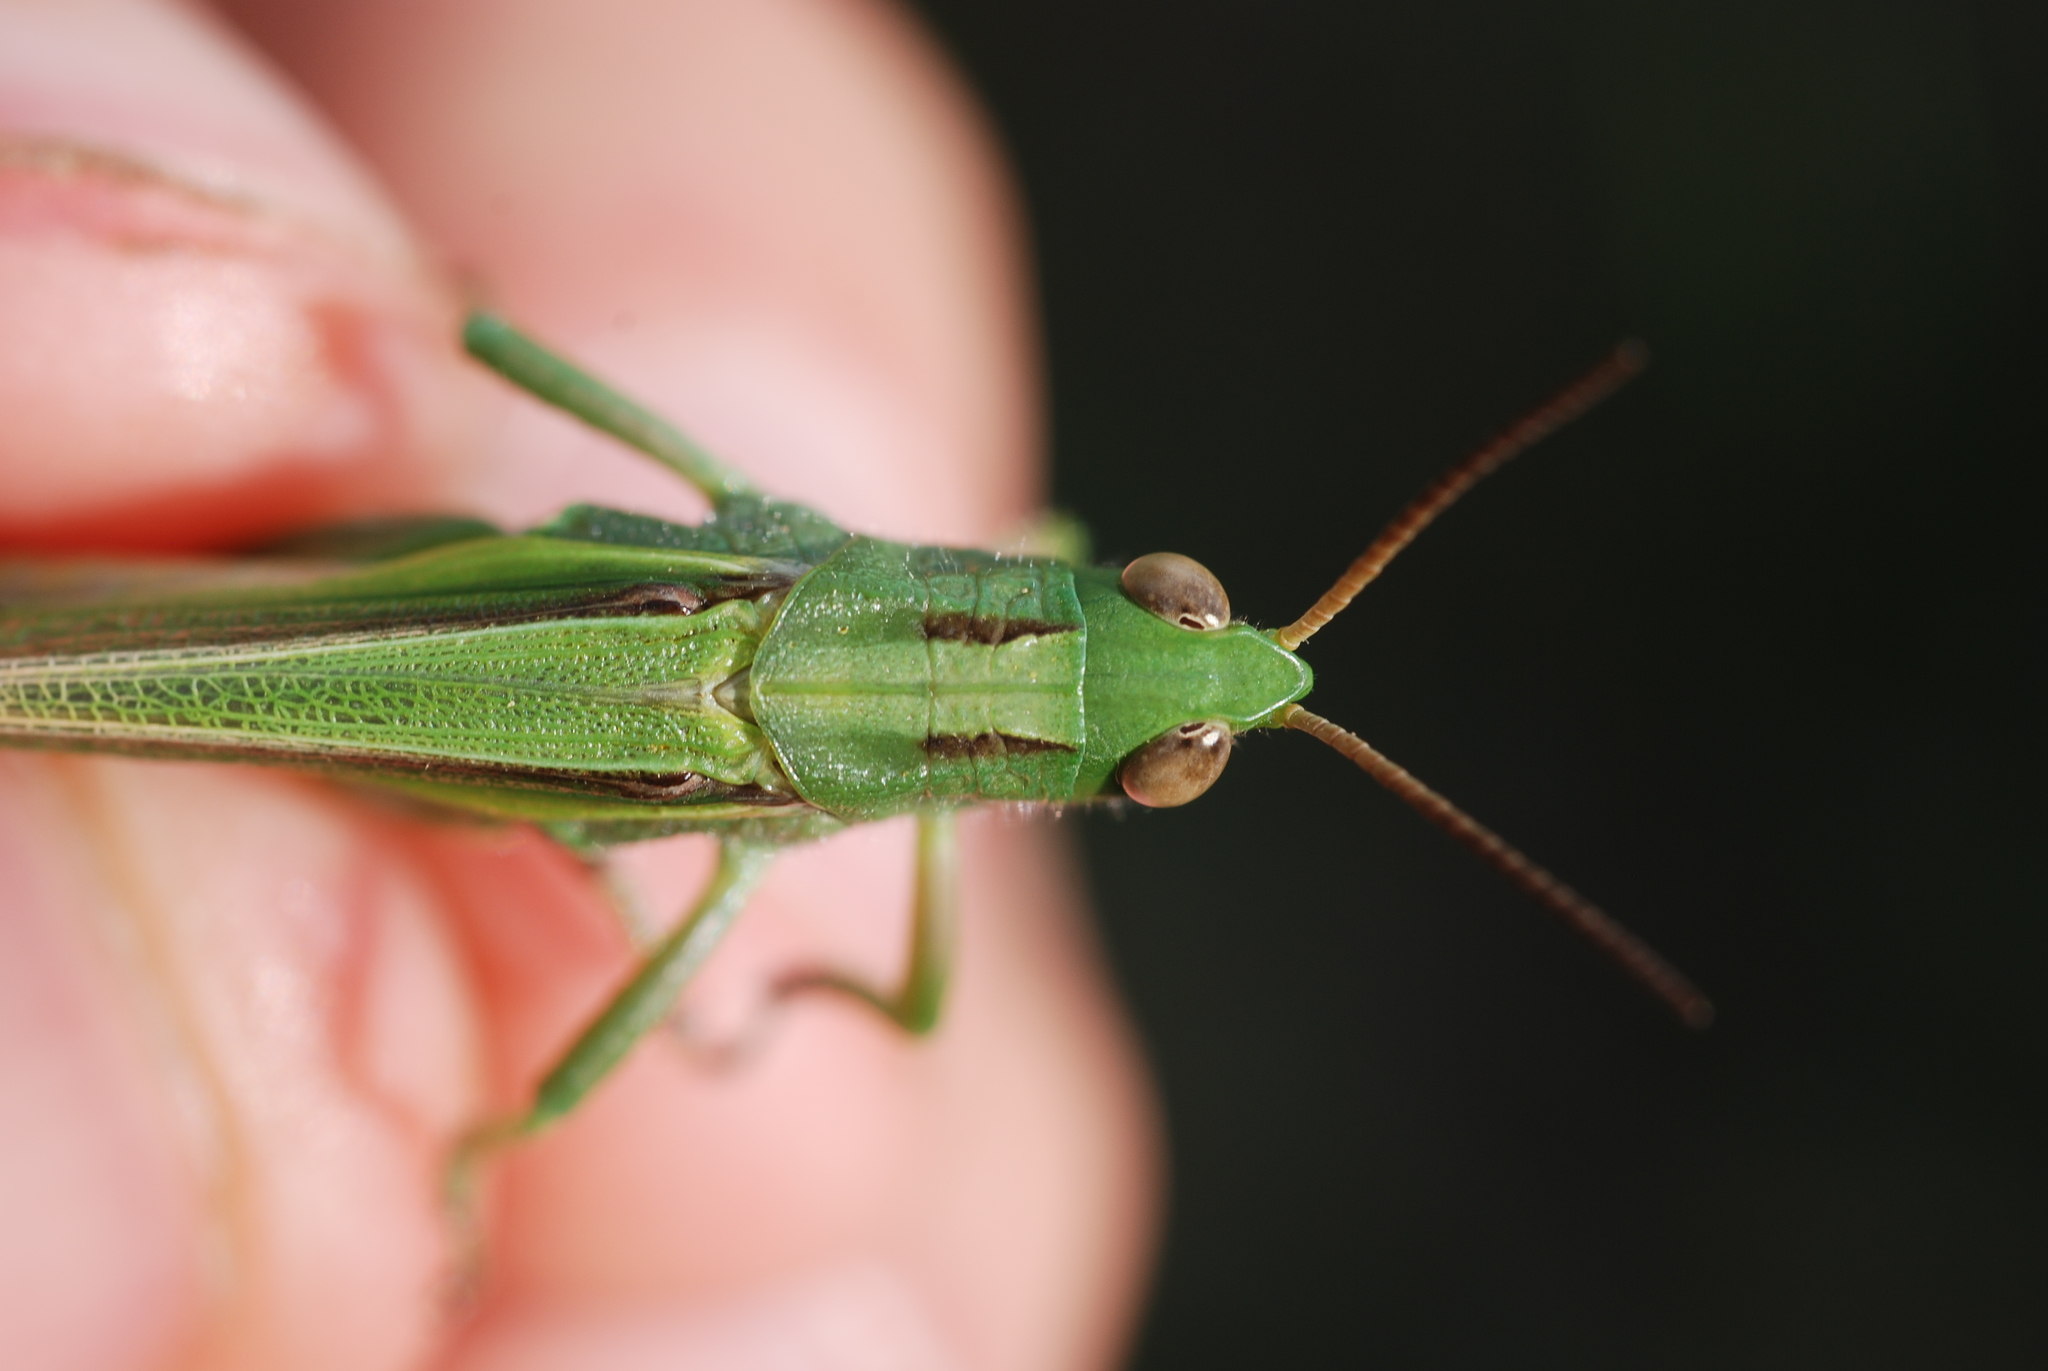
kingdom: Animalia
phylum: Arthropoda
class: Insecta
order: Orthoptera
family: Acrididae
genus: Paracinema
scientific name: Paracinema tricolor
